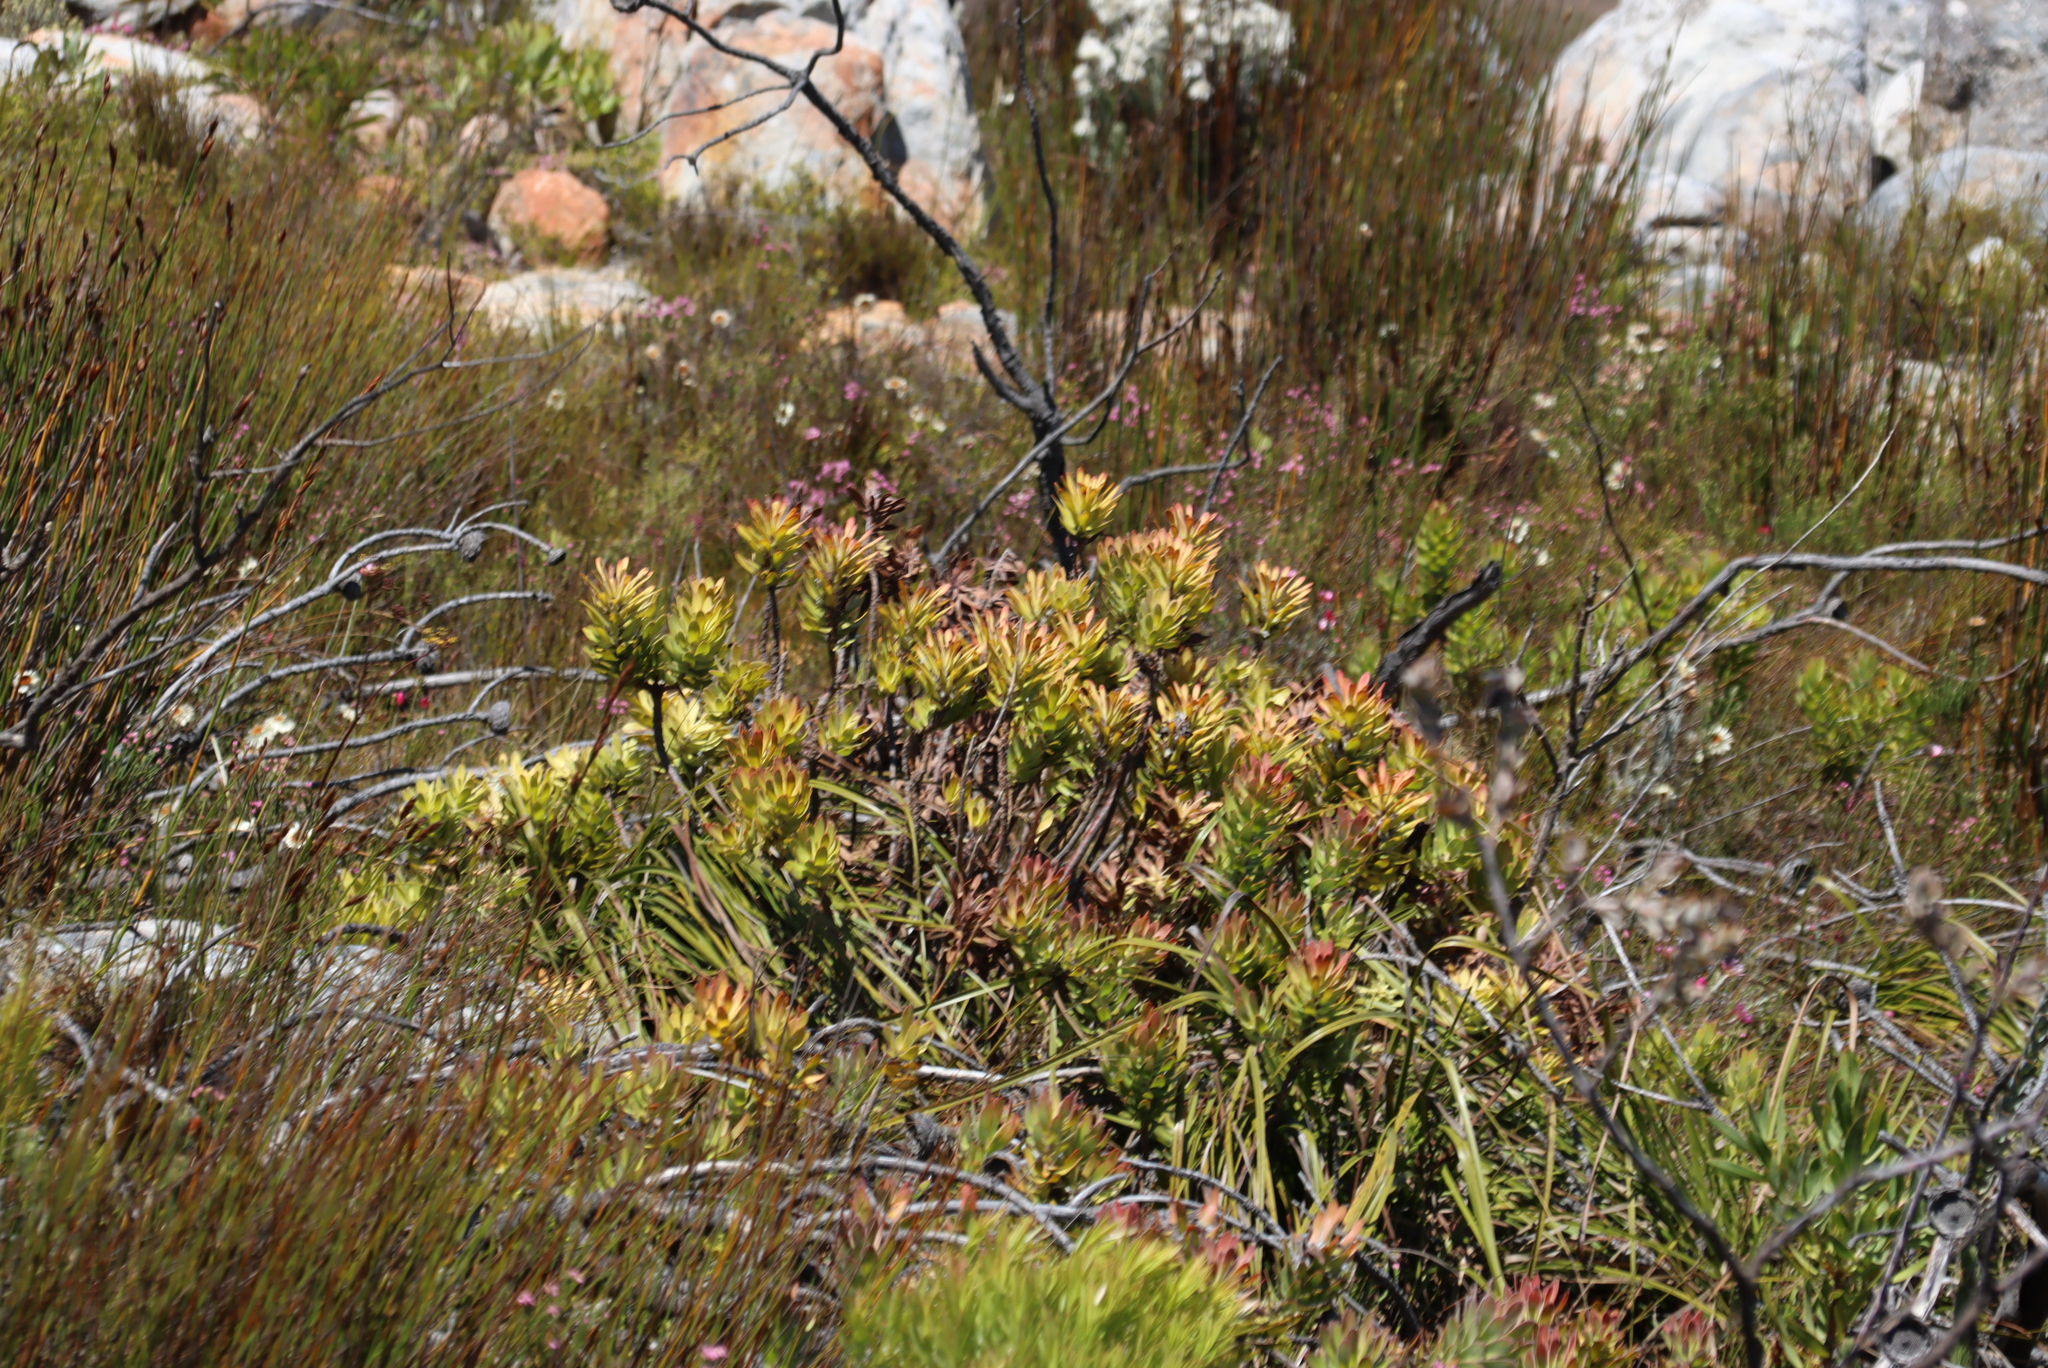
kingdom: Plantae
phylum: Tracheophyta
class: Magnoliopsida
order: Proteales
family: Proteaceae
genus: Mimetes
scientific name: Mimetes cucullatus
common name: Common pagoda
